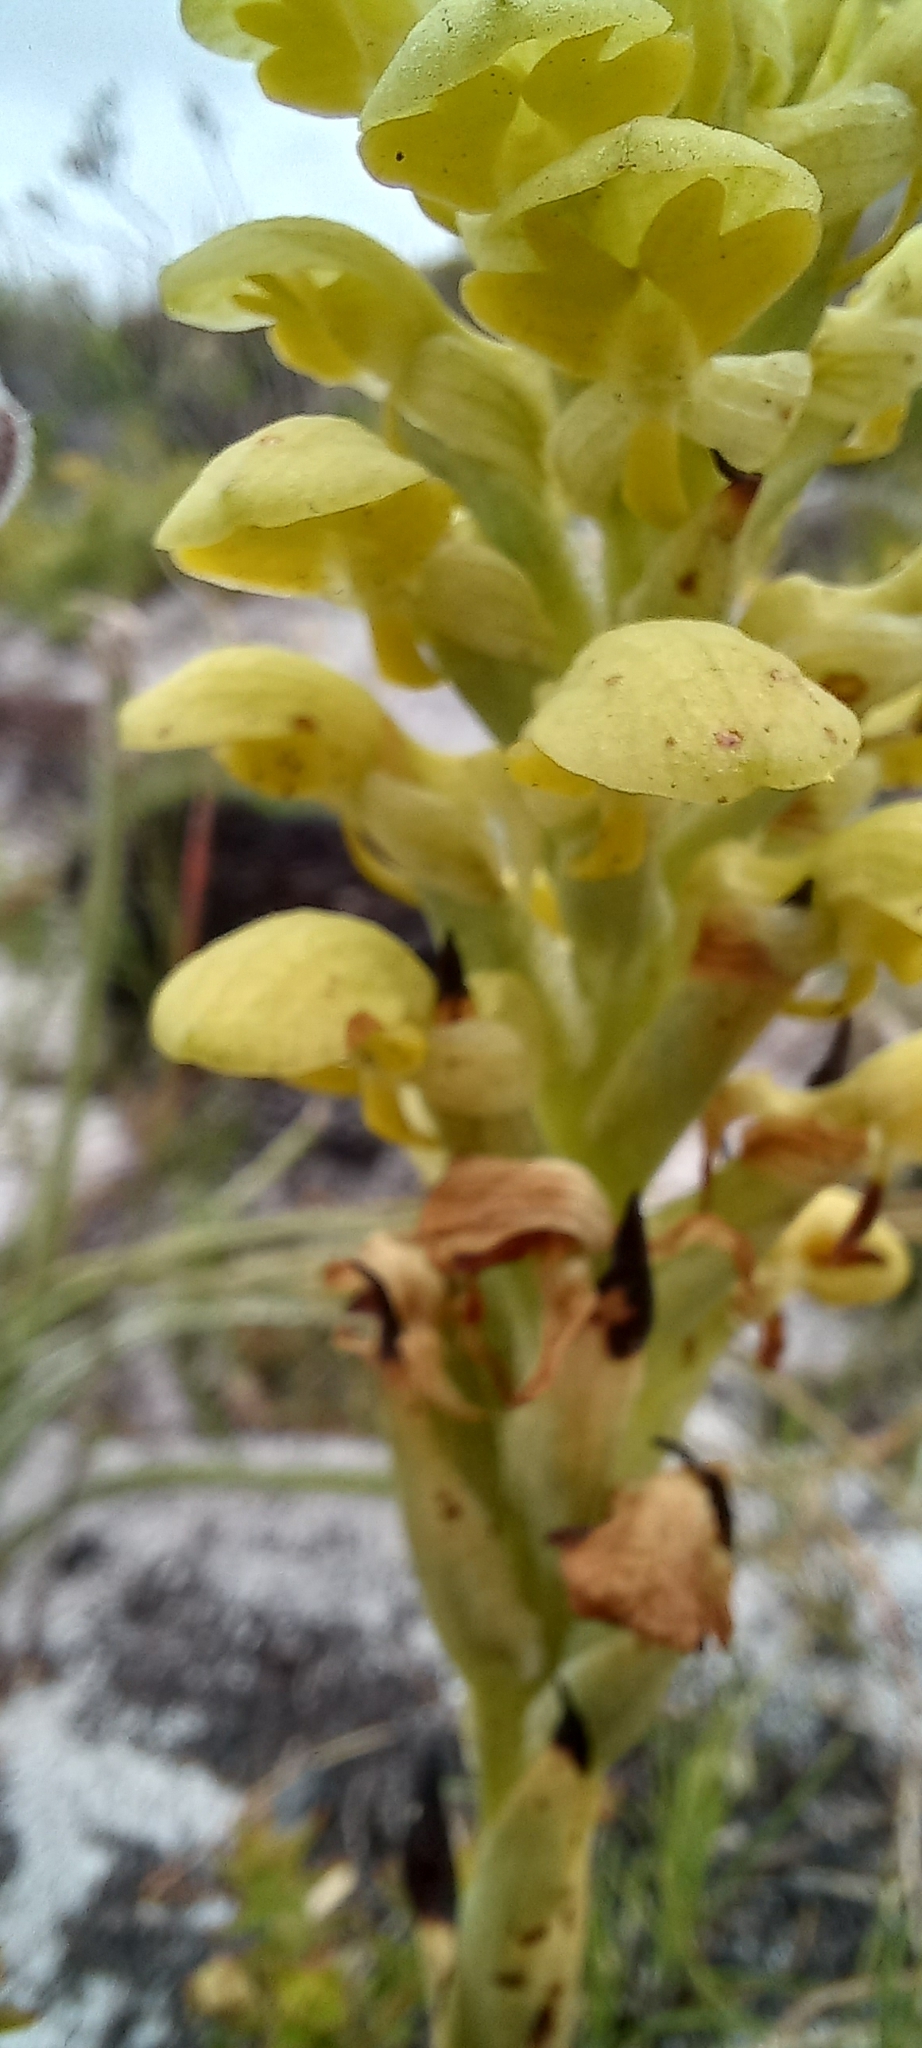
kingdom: Plantae
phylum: Tracheophyta
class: Liliopsida
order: Asparagales
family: Orchidaceae
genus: Disa
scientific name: Disa sabulosa
